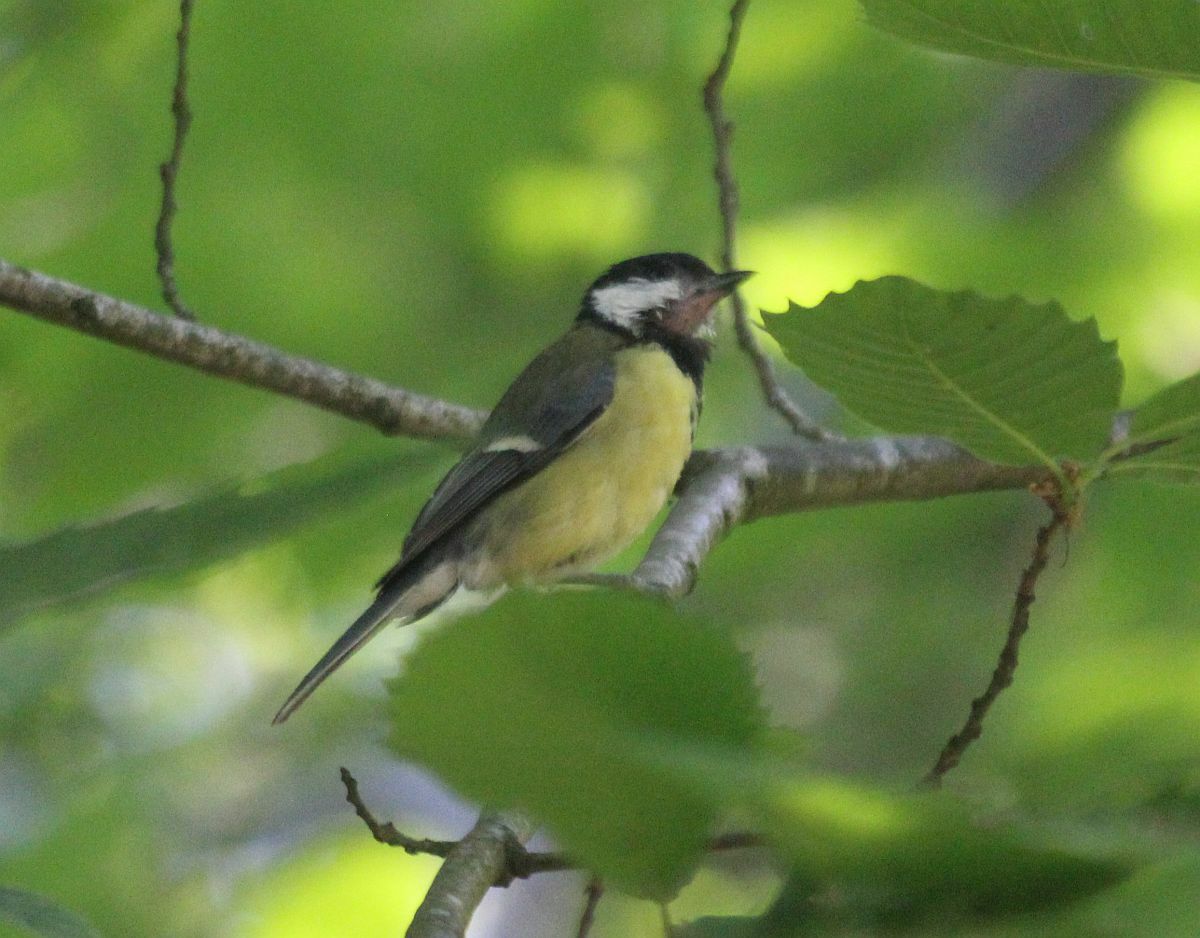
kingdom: Animalia
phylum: Chordata
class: Aves
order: Passeriformes
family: Paridae
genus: Parus
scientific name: Parus major
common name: Great tit
